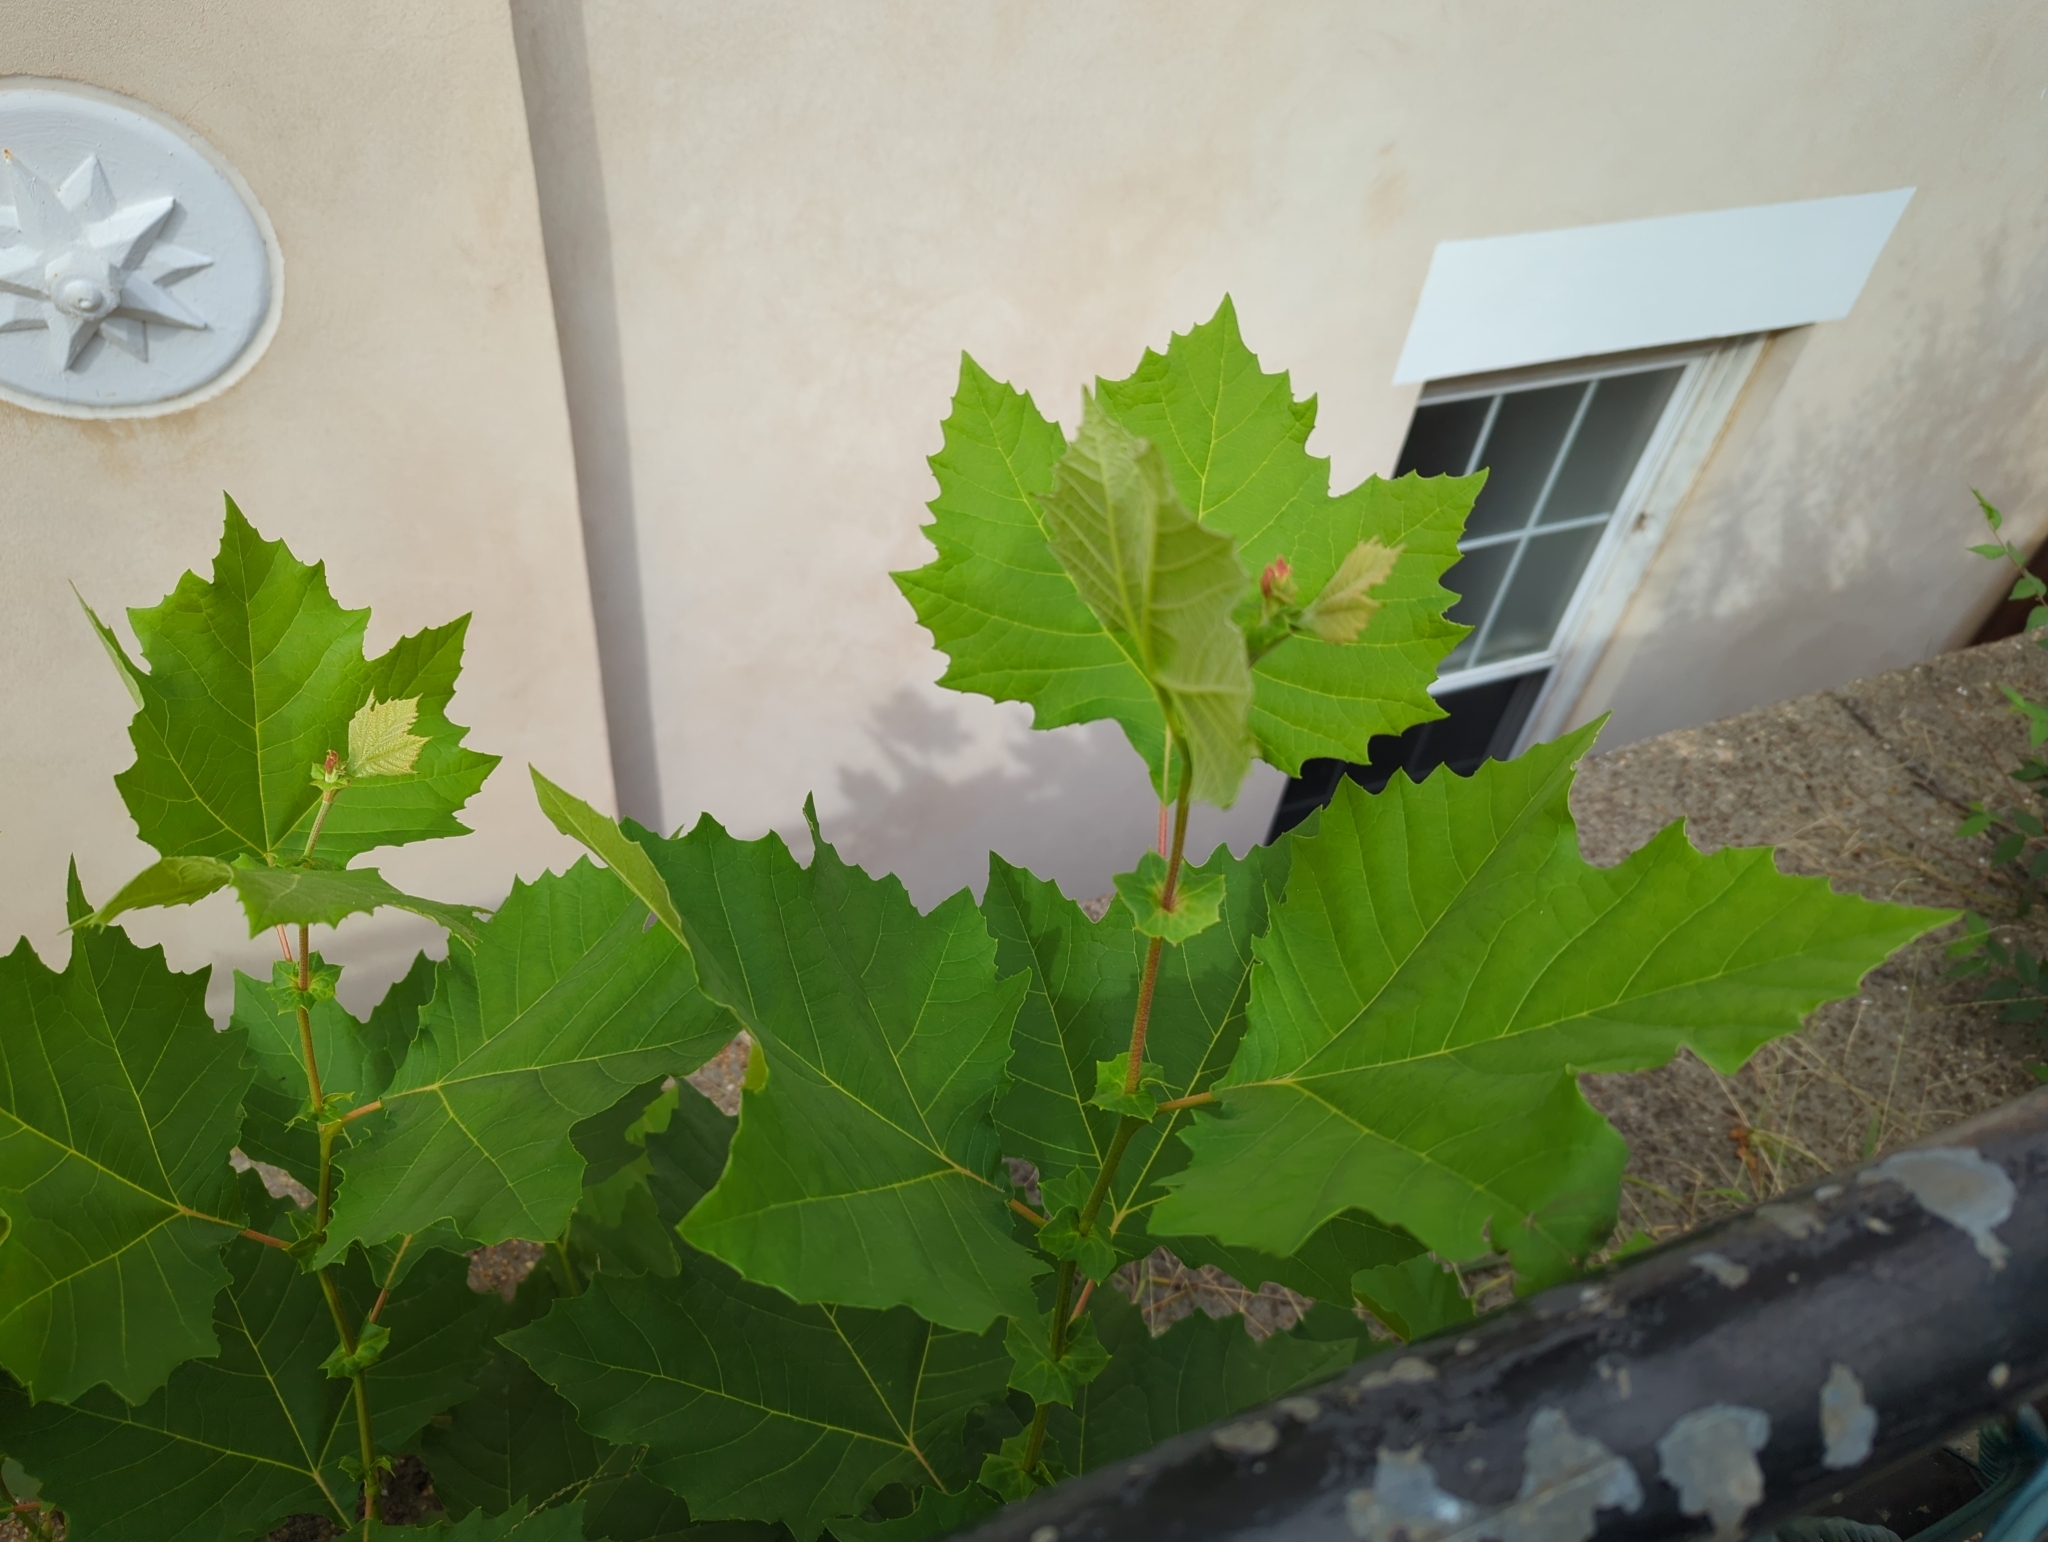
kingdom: Plantae
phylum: Tracheophyta
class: Magnoliopsida
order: Proteales
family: Platanaceae
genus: Platanus
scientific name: Platanus occidentalis
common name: American sycamore
